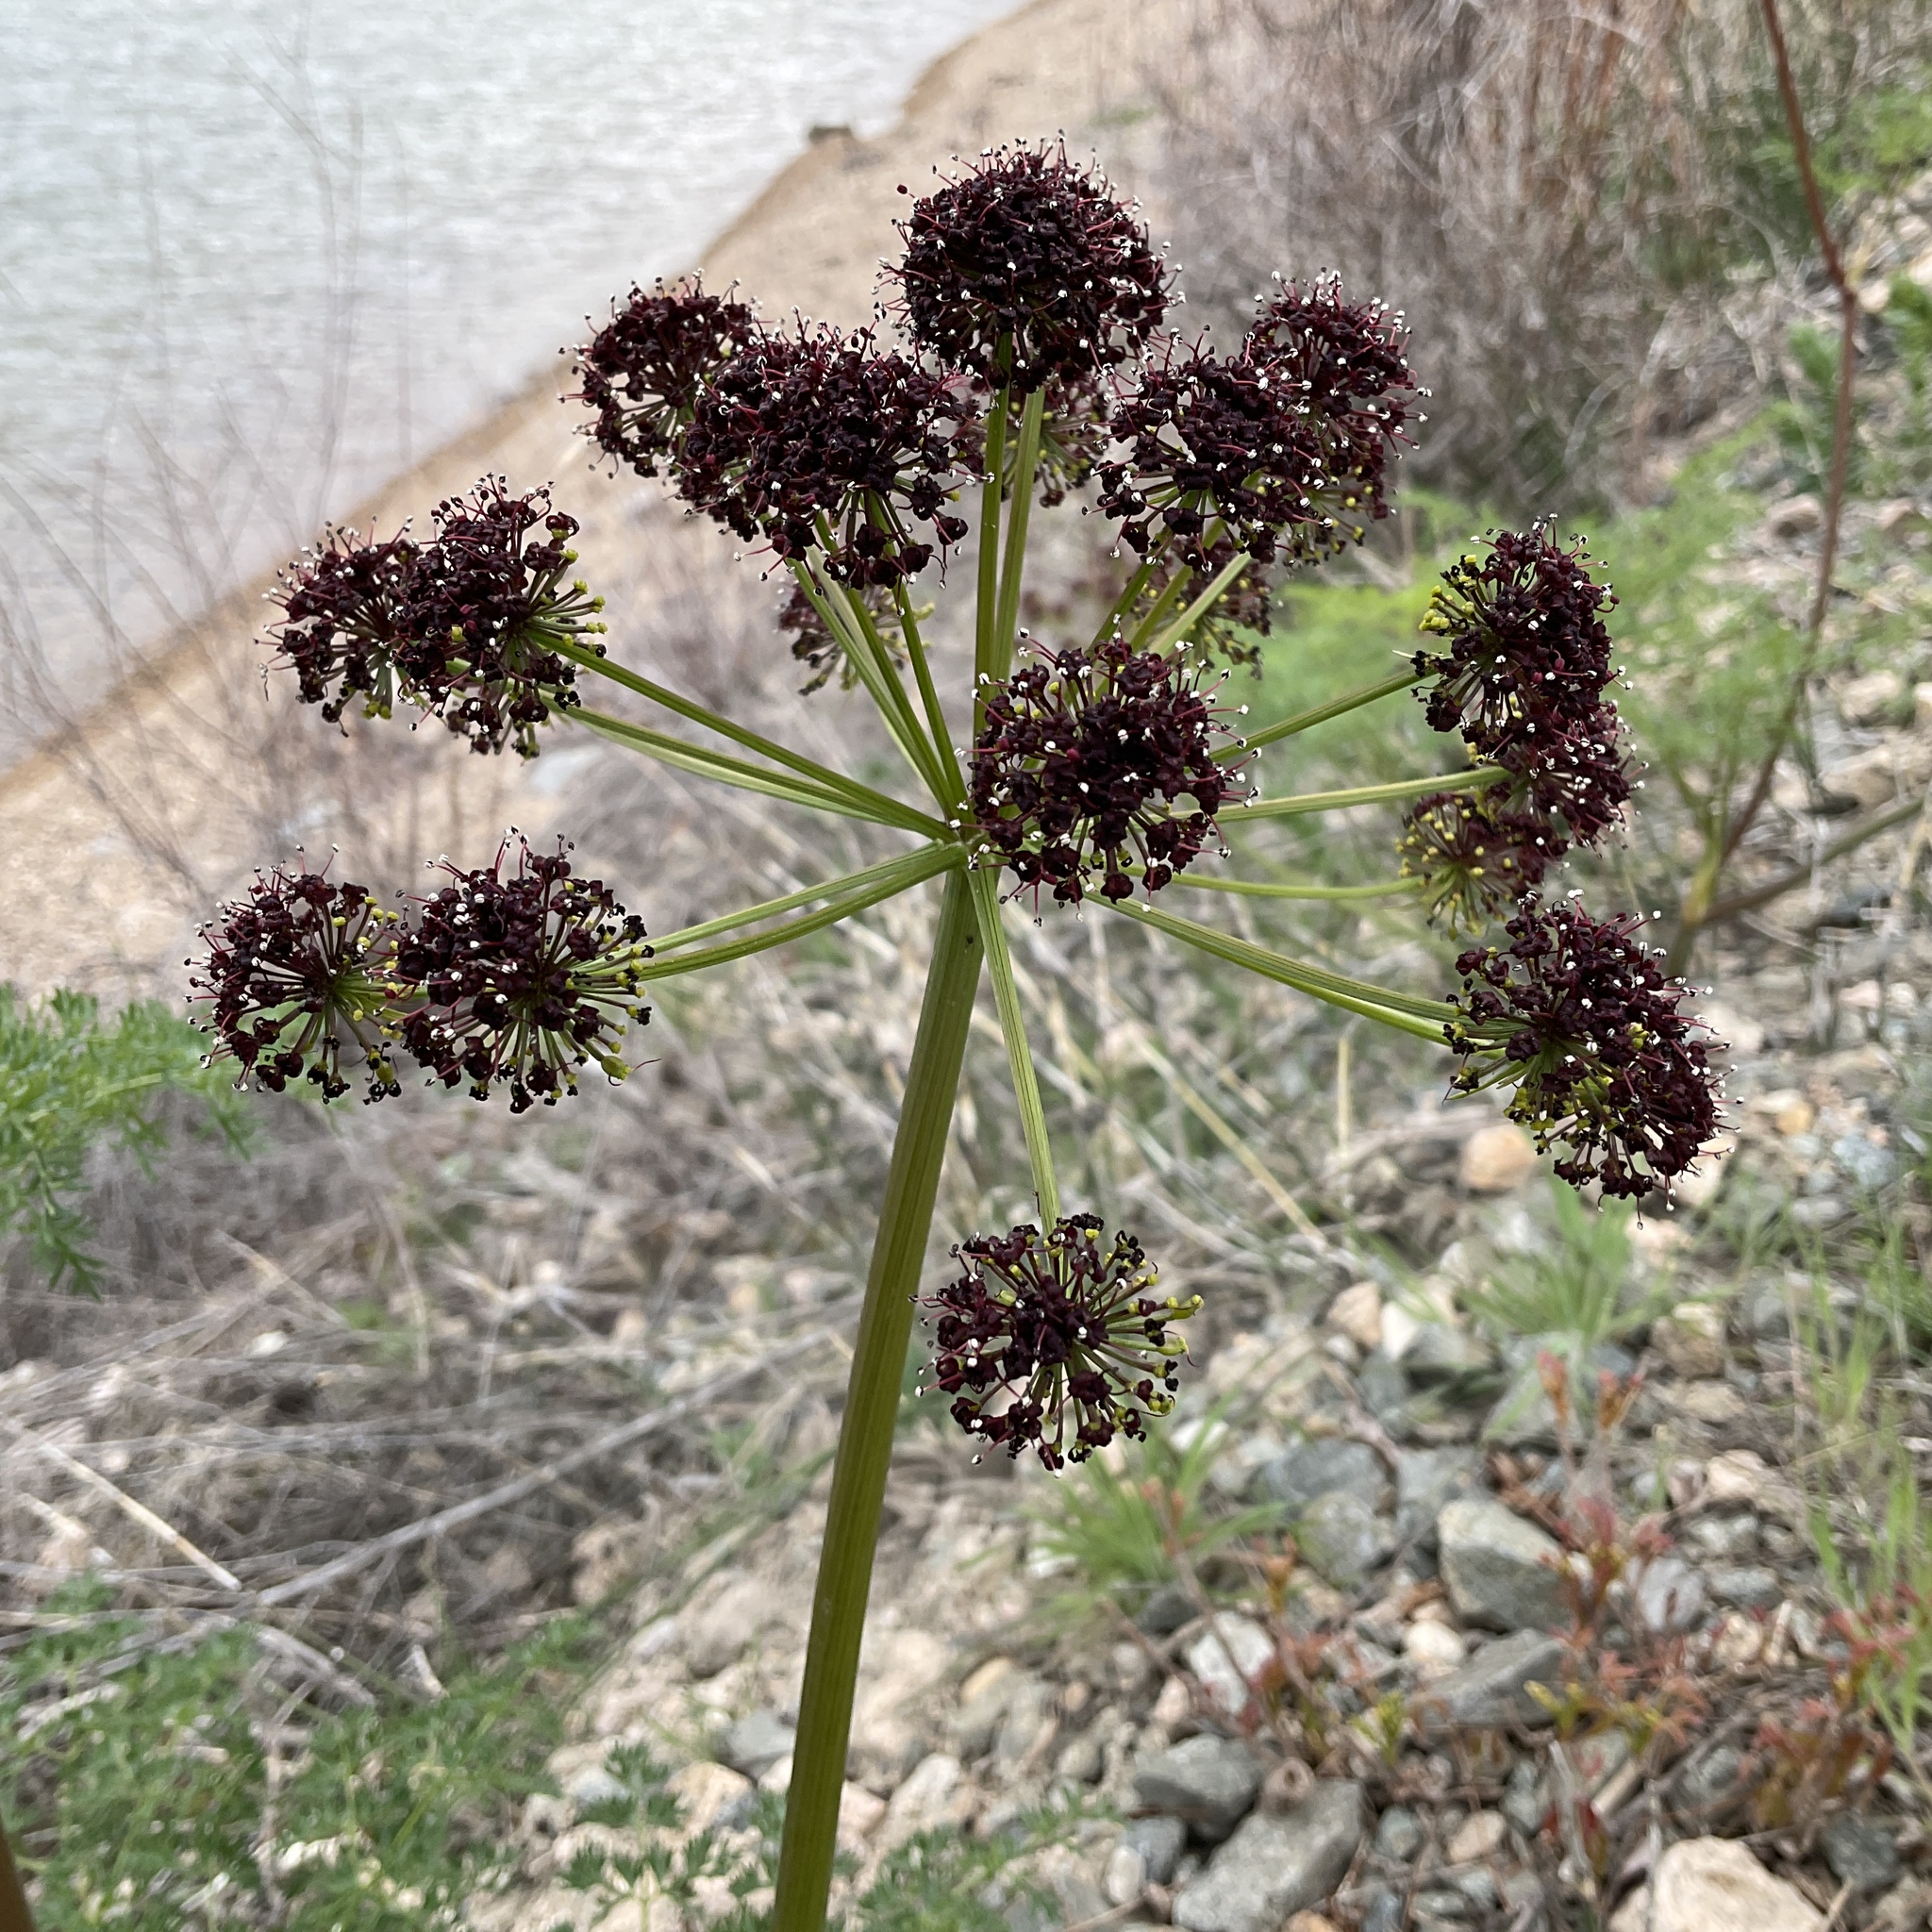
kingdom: Plantae
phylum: Tracheophyta
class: Magnoliopsida
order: Apiales
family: Apiaceae
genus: Lomatium
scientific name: Lomatium multifidum
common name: Carrot-leaved biscuitroot
